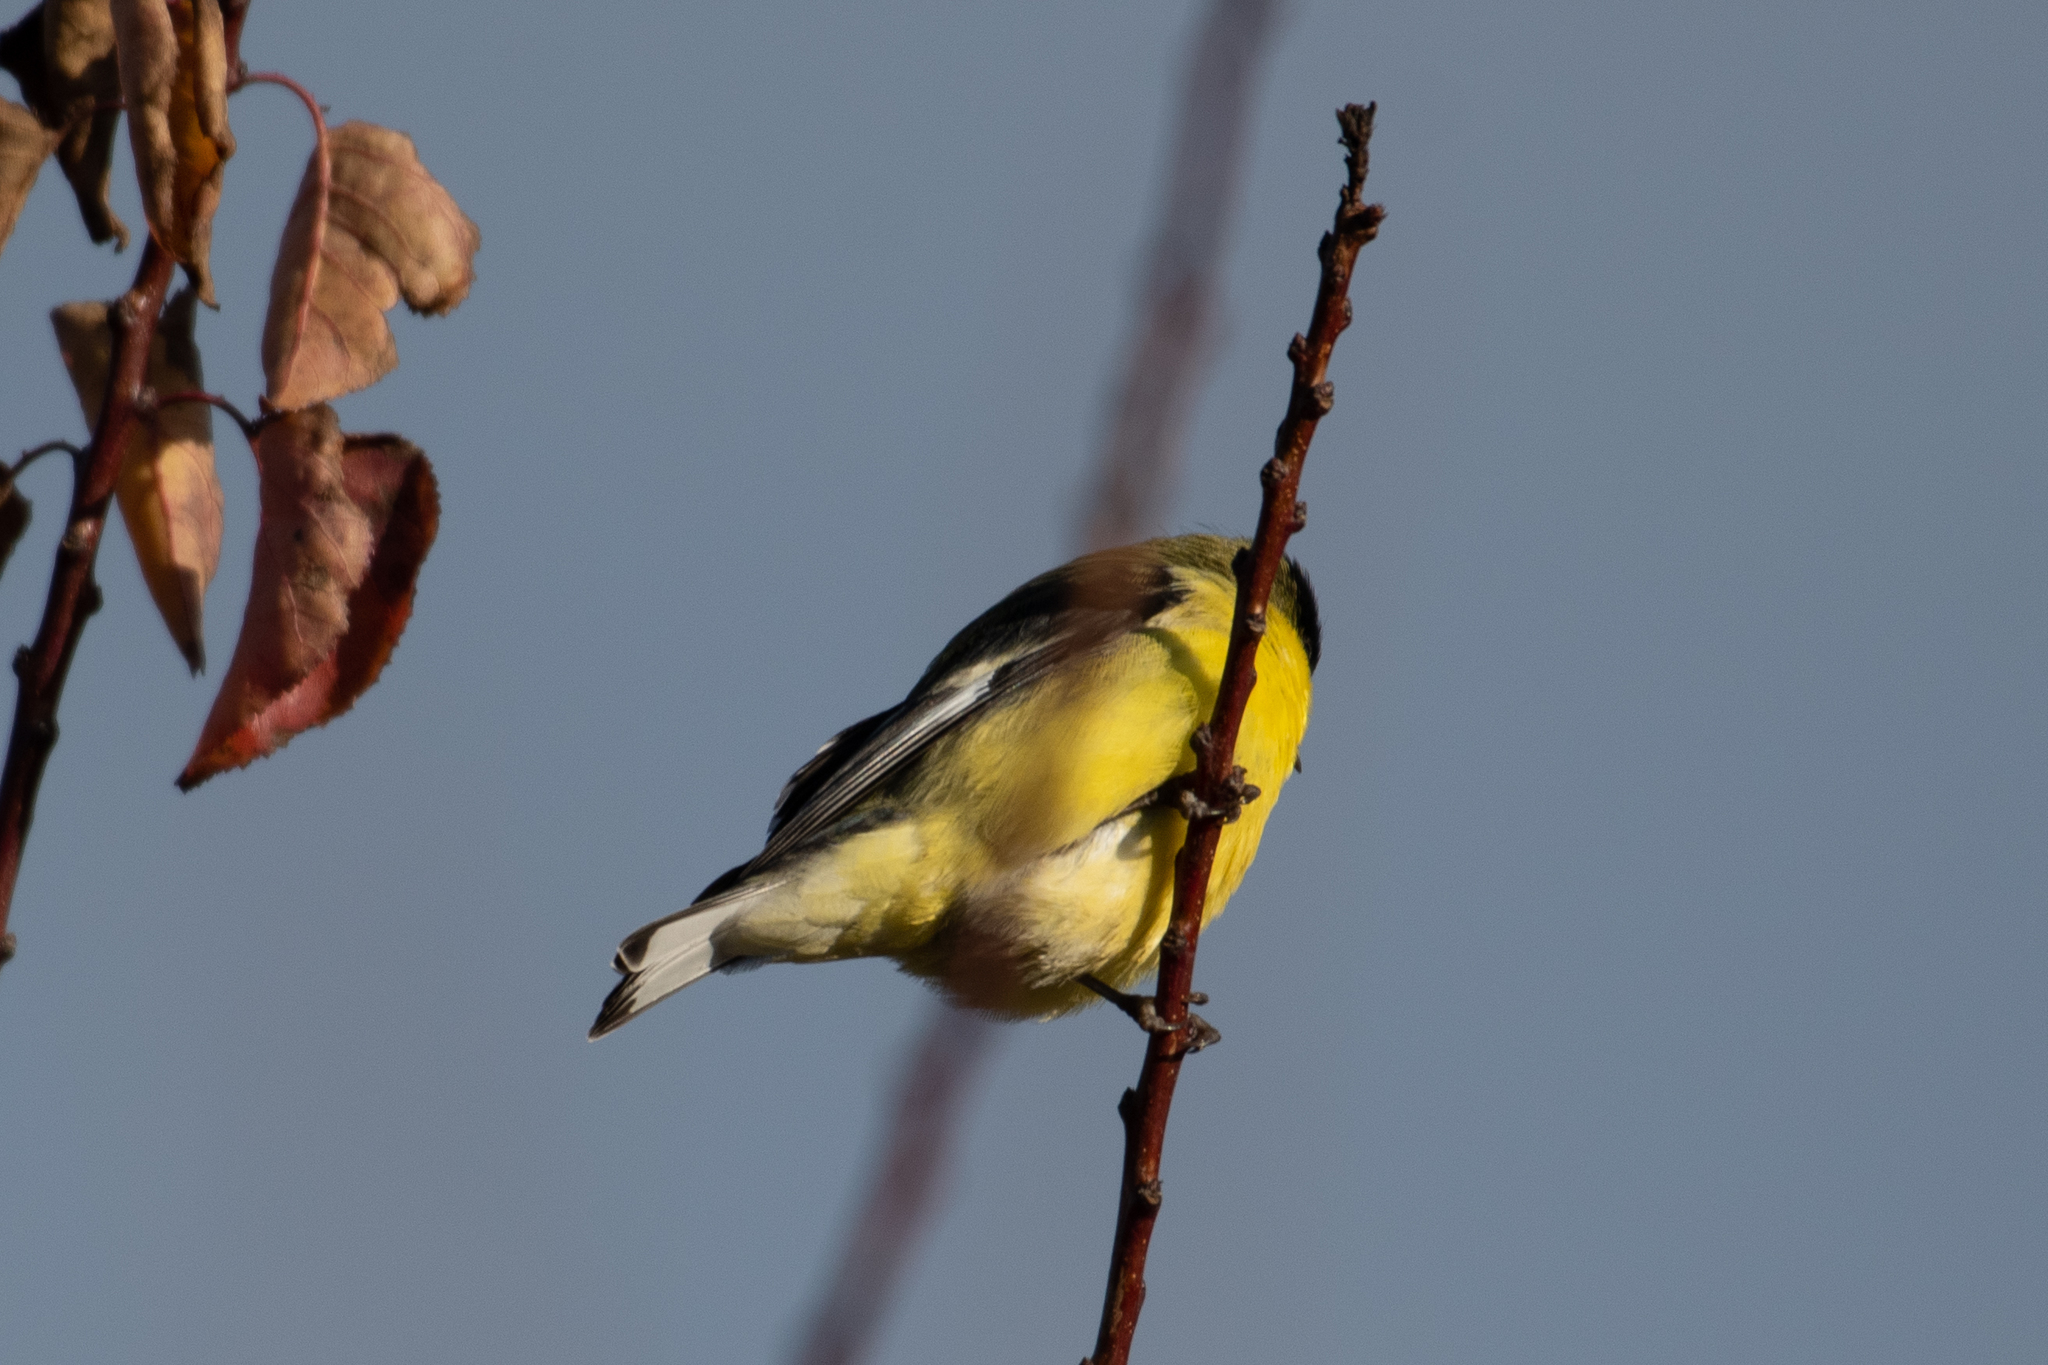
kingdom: Animalia
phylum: Chordata
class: Aves
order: Passeriformes
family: Fringillidae
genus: Spinus
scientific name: Spinus psaltria
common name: Lesser goldfinch
